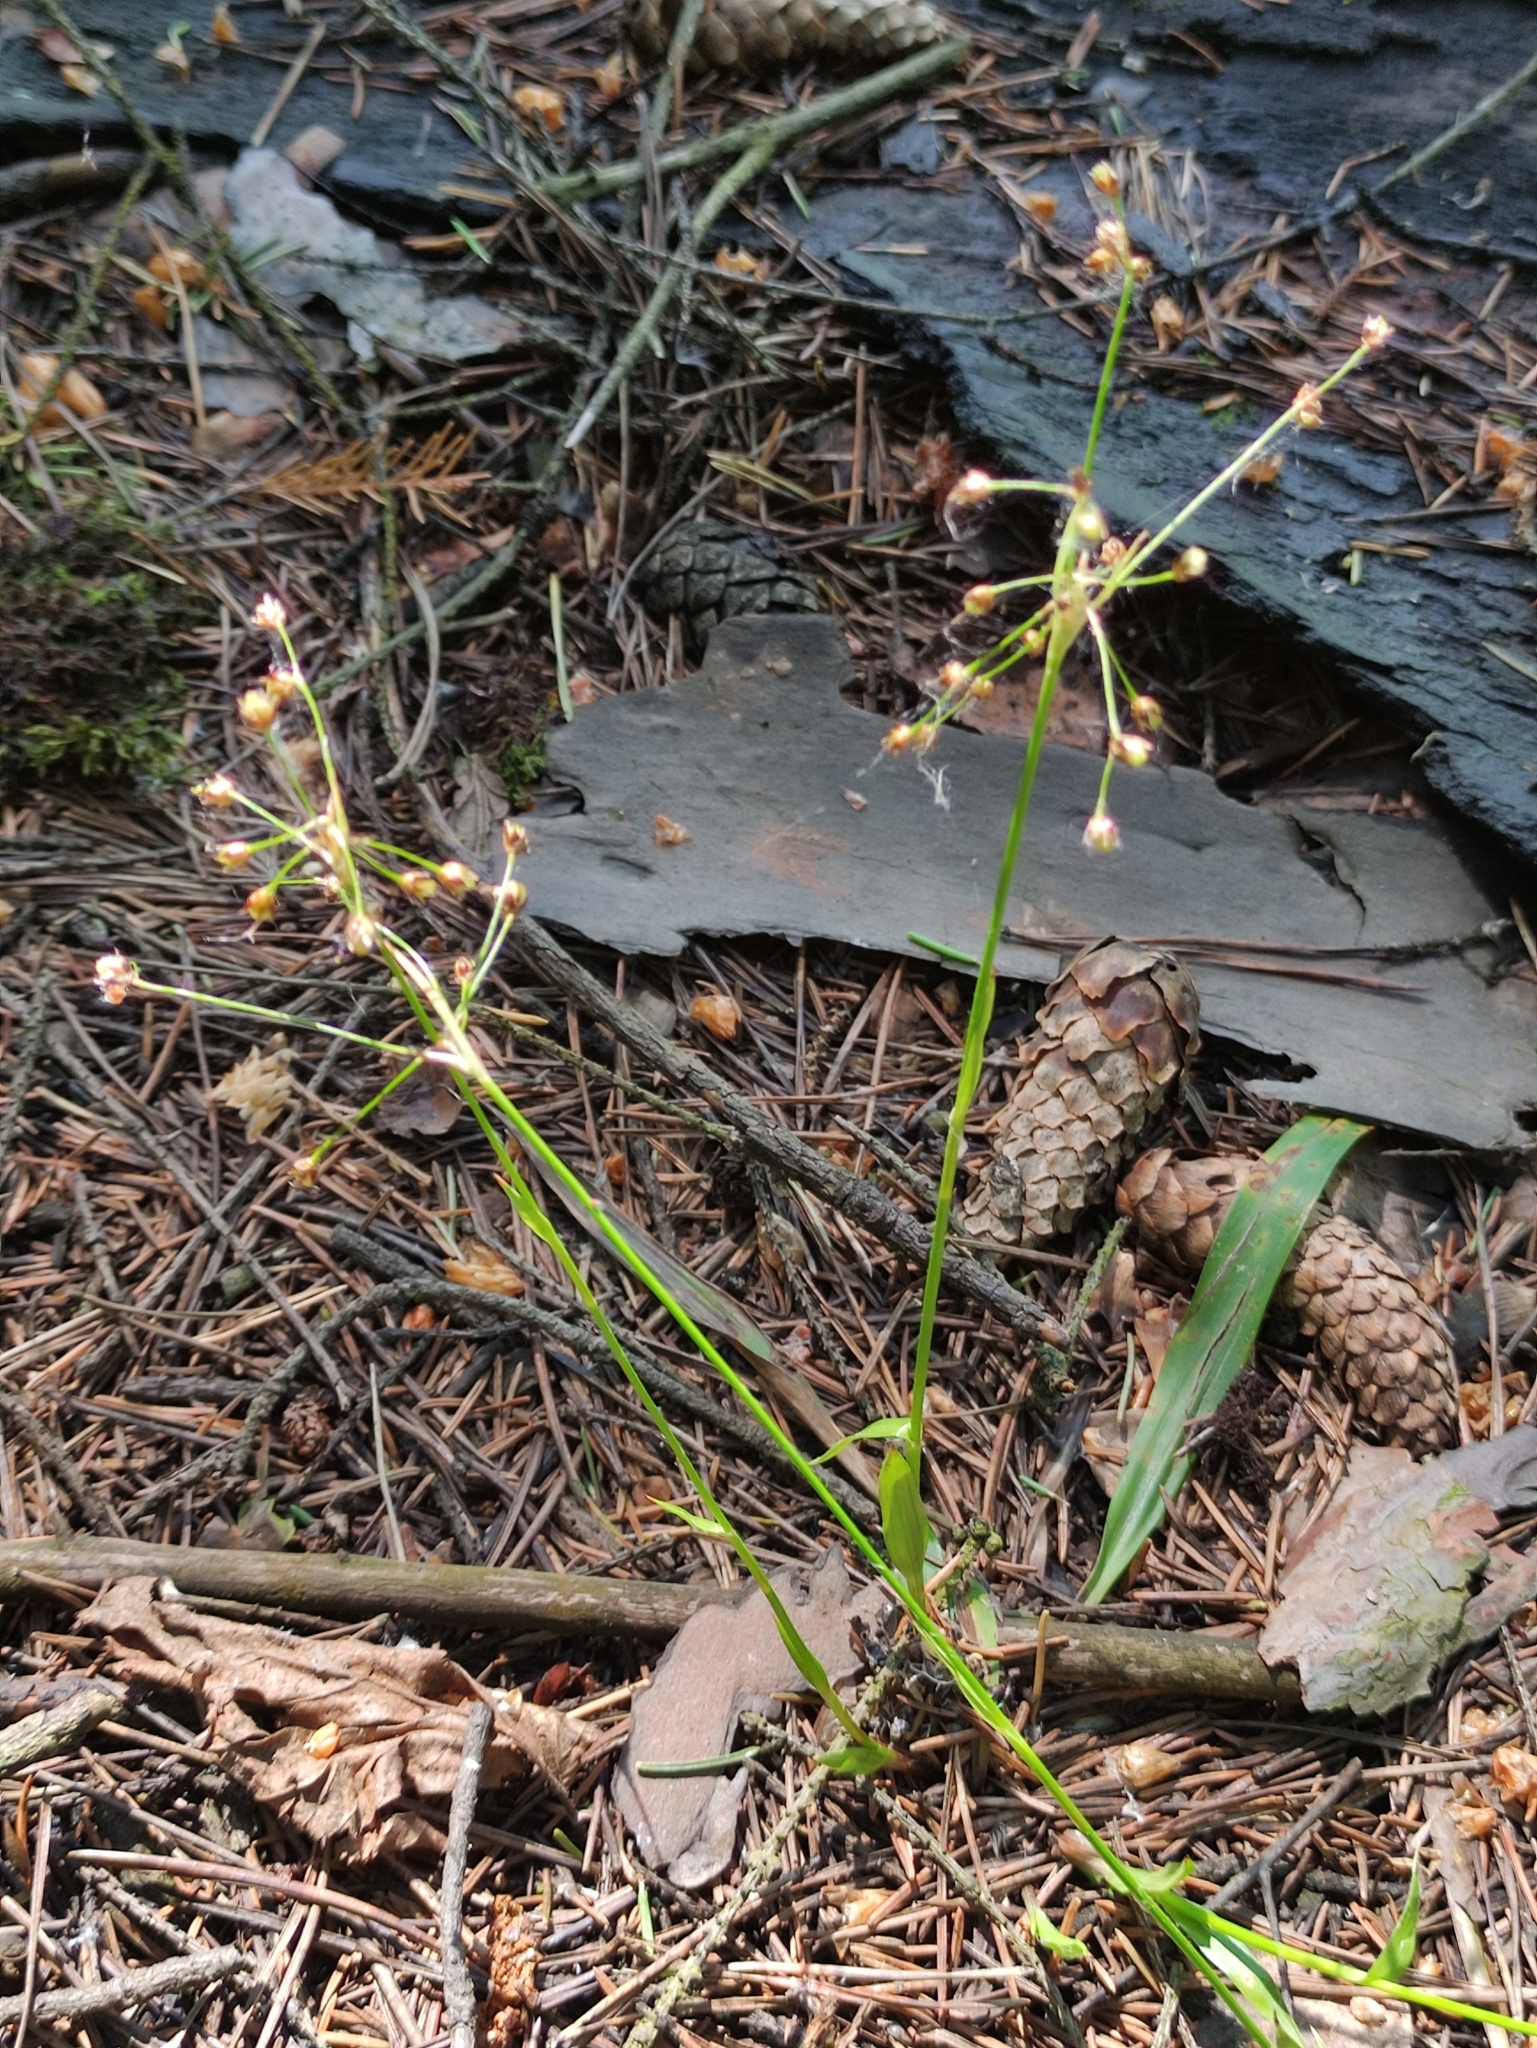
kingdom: Plantae
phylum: Tracheophyta
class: Liliopsida
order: Poales
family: Juncaceae
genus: Luzula
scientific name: Luzula pilosa
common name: Hairy wood-rush
